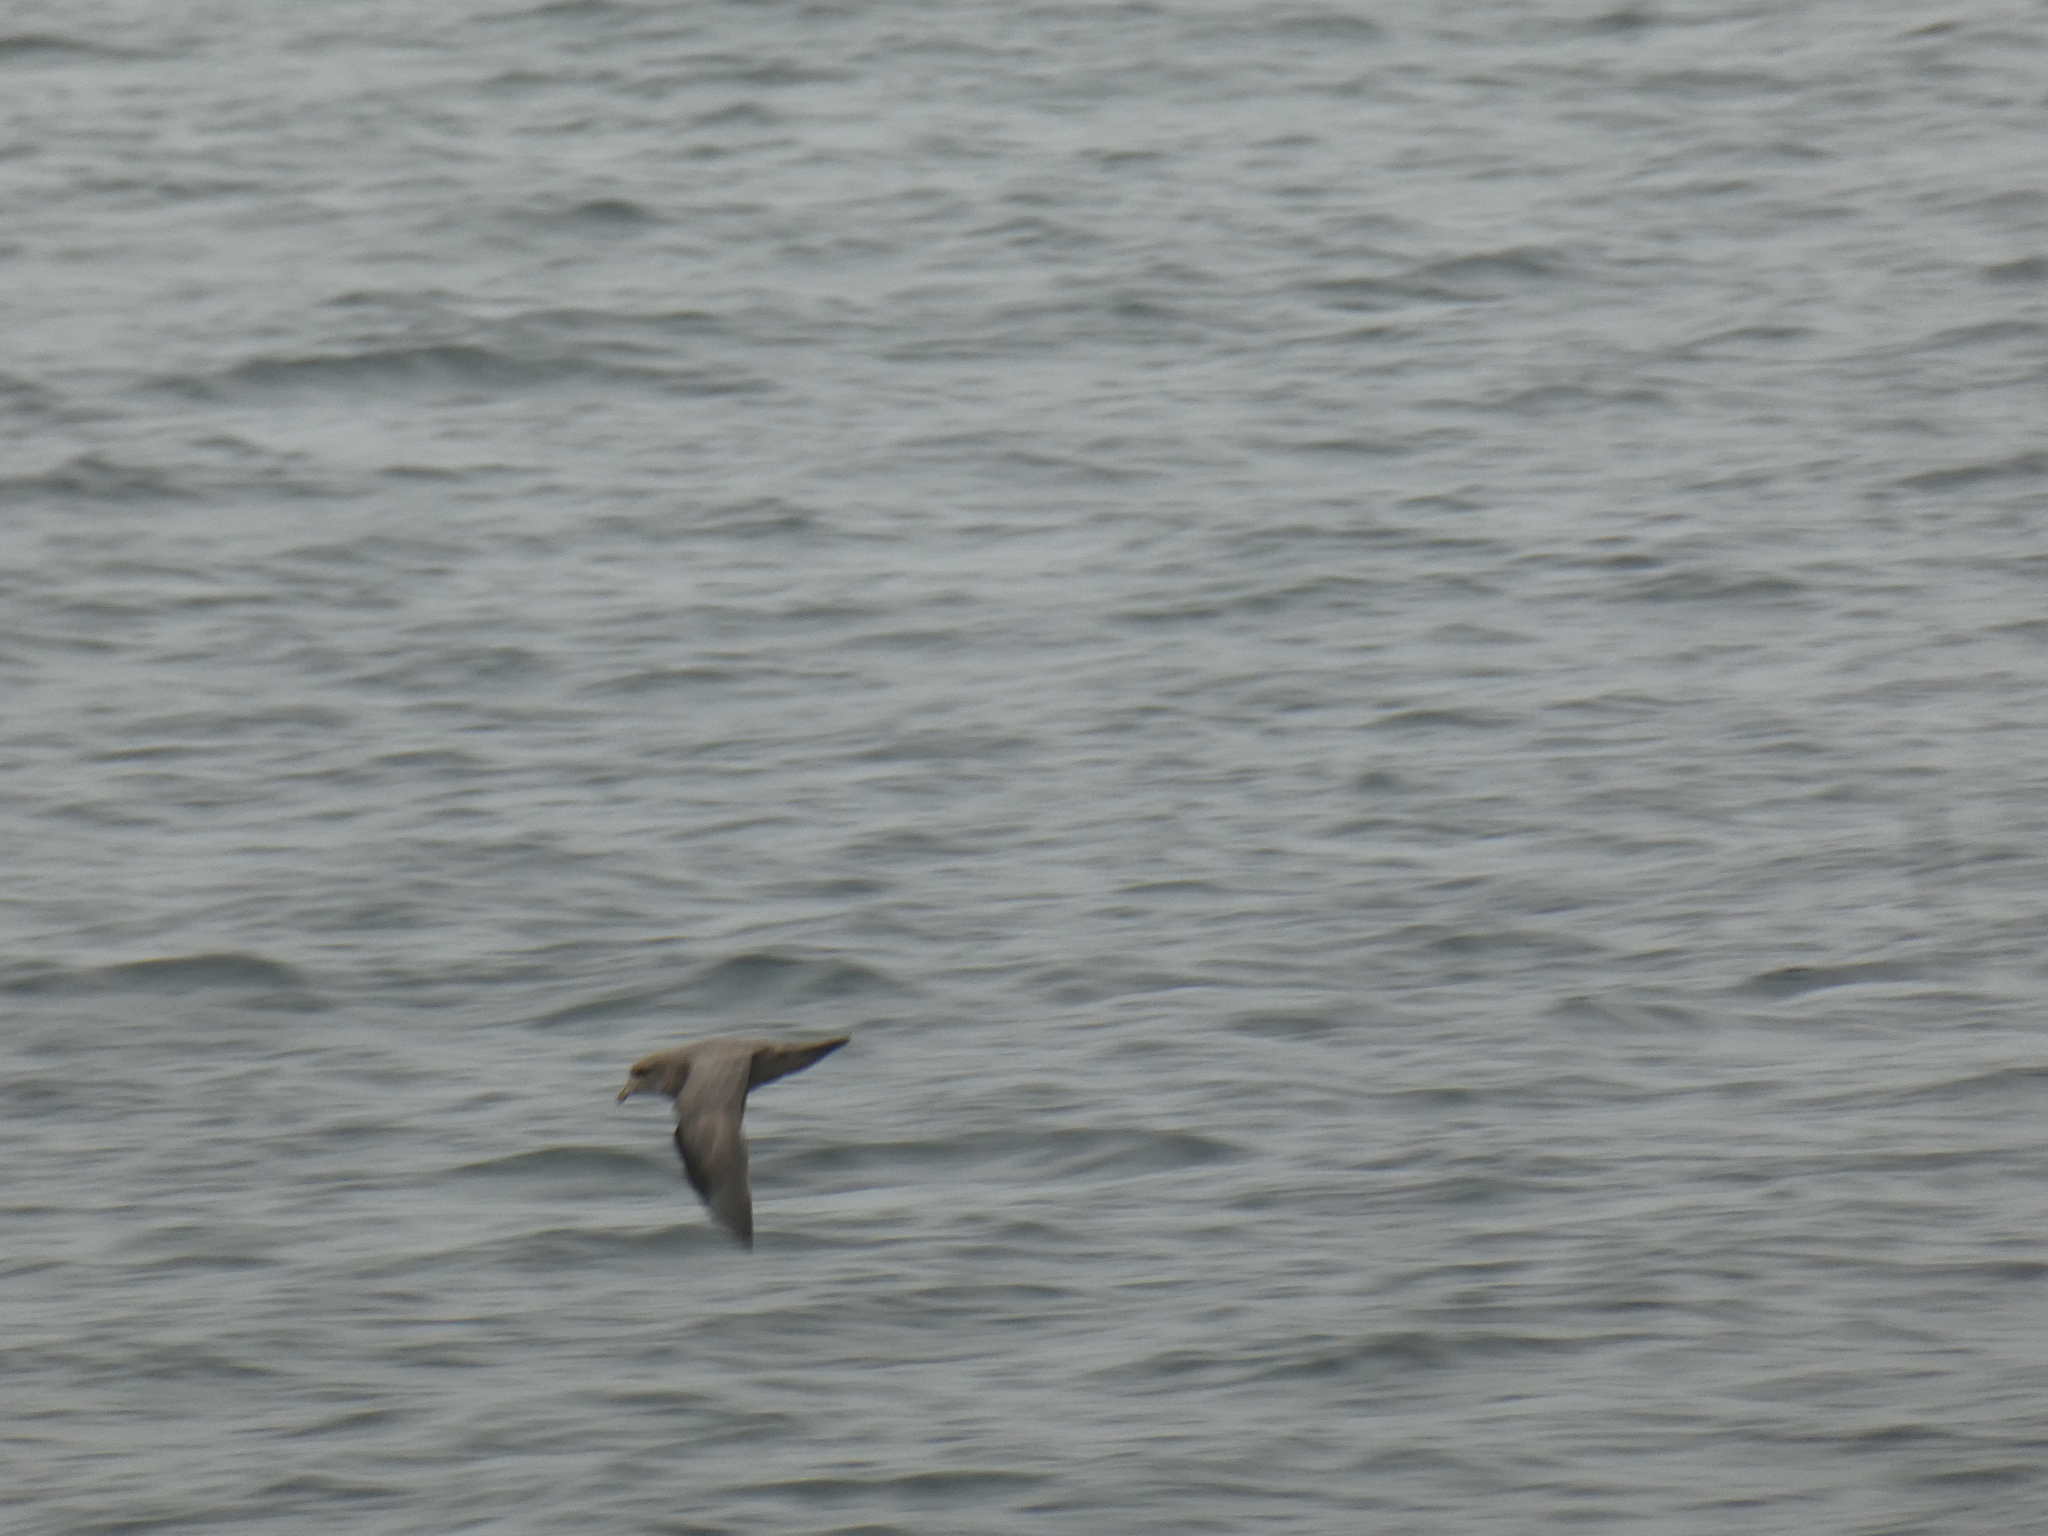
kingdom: Animalia
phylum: Chordata
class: Aves
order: Procellariiformes
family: Procellariidae
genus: Fulmarus
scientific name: Fulmarus glacialis
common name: Northern fulmar
